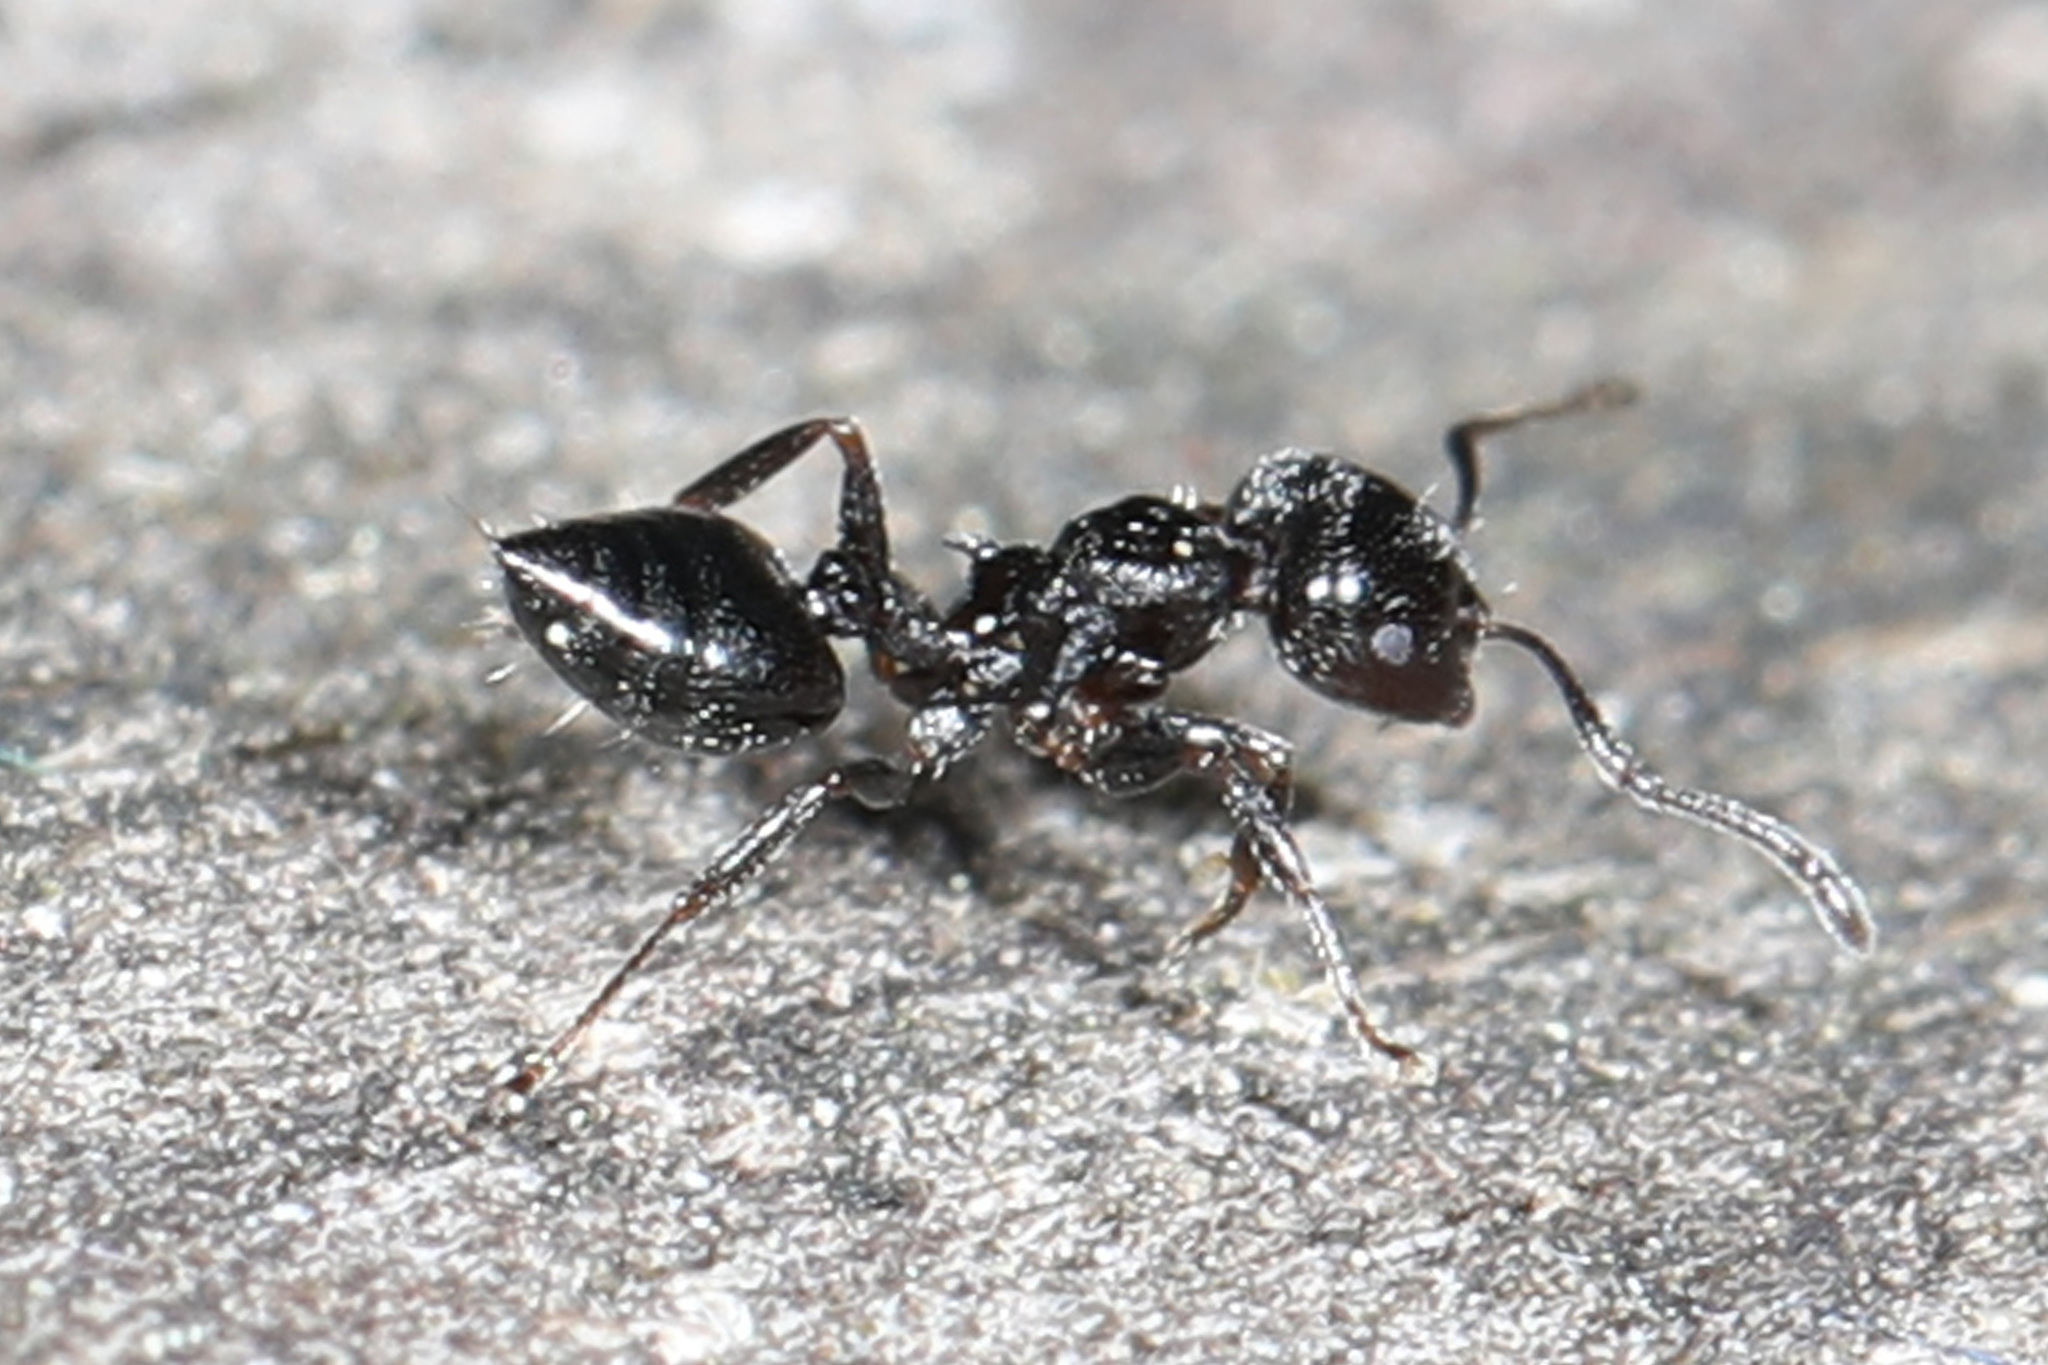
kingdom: Animalia
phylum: Arthropoda
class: Insecta
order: Hymenoptera
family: Formicidae
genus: Crematogaster
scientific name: Crematogaster ashmeadi
